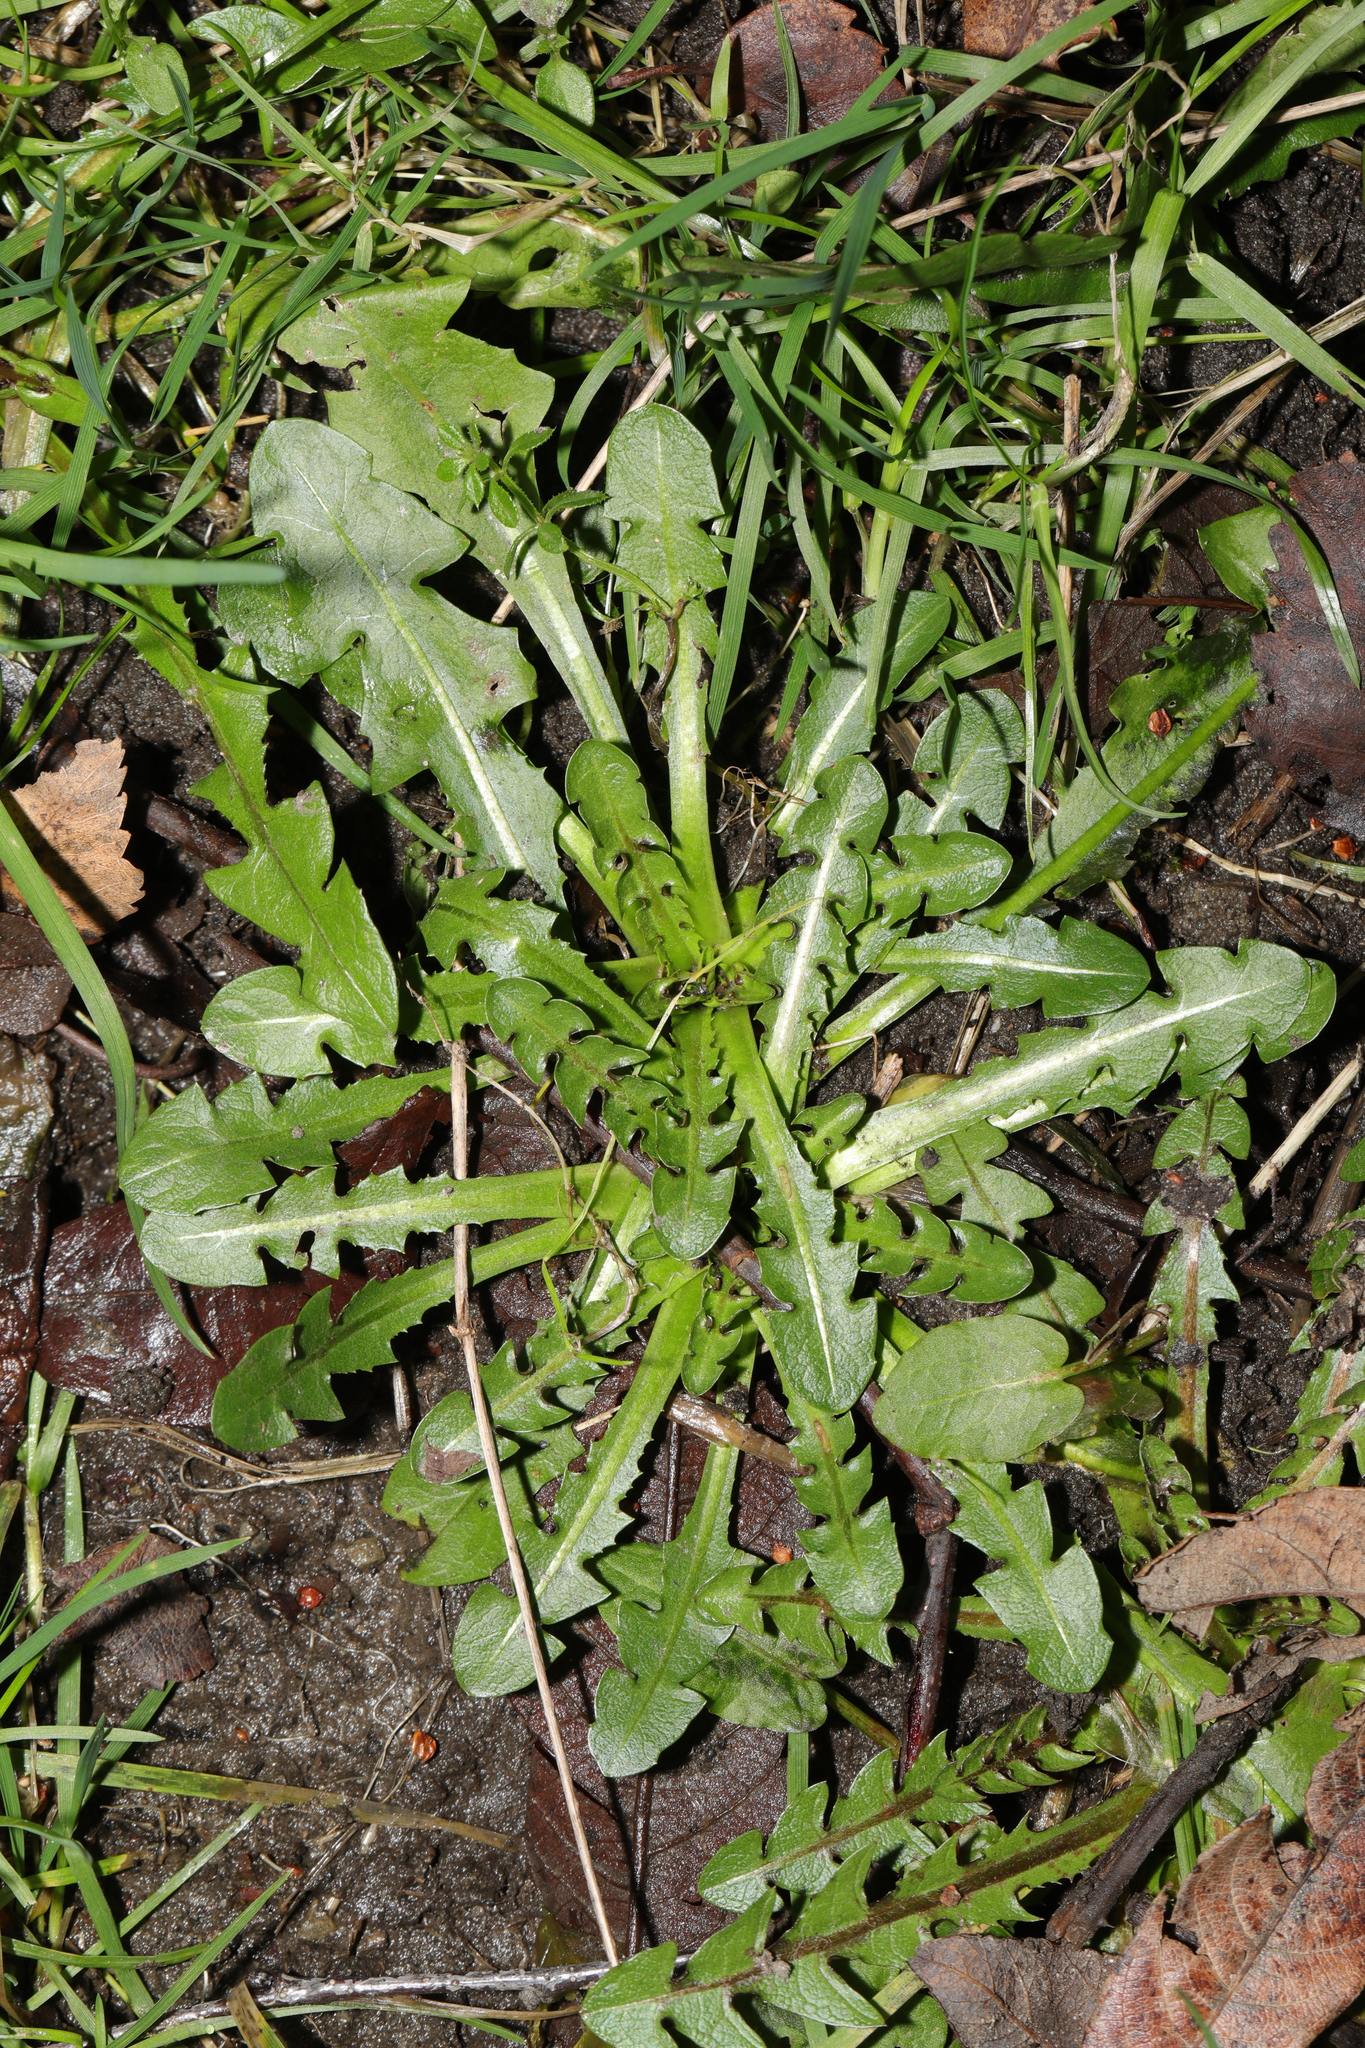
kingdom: Plantae
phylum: Tracheophyta
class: Magnoliopsida
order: Asterales
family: Asteraceae
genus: Taraxacum
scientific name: Taraxacum officinale
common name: Common dandelion
